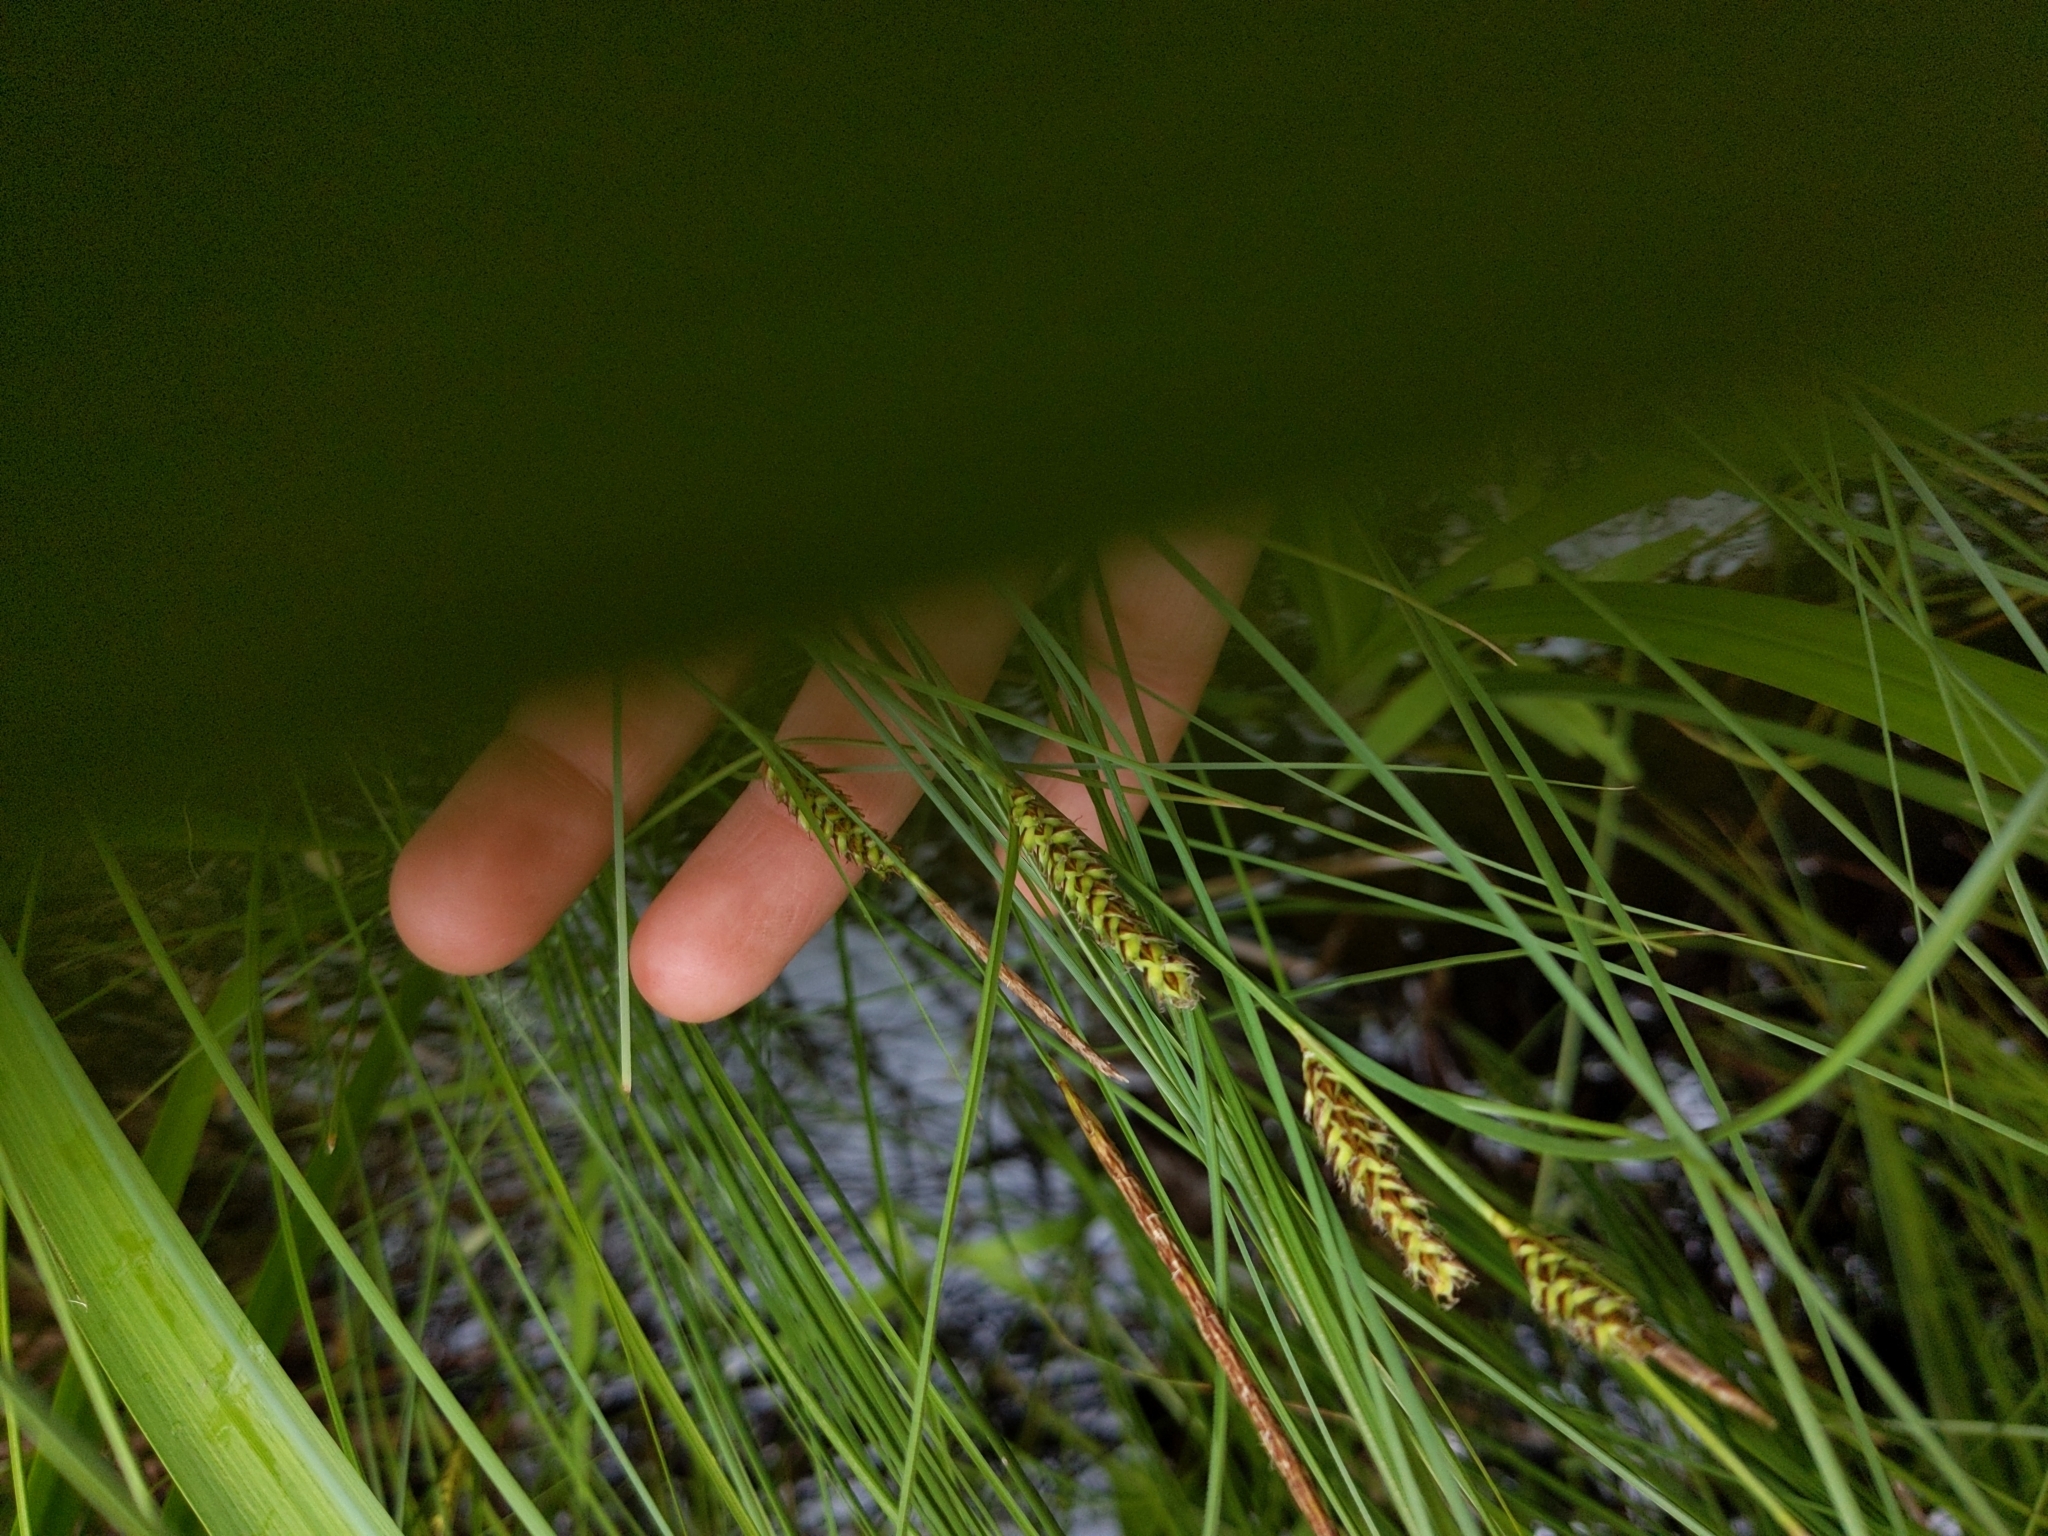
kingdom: Plantae
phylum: Tracheophyta
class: Liliopsida
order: Poales
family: Cyperaceae
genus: Carex
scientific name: Carex lasiocarpa
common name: Slender sedge
